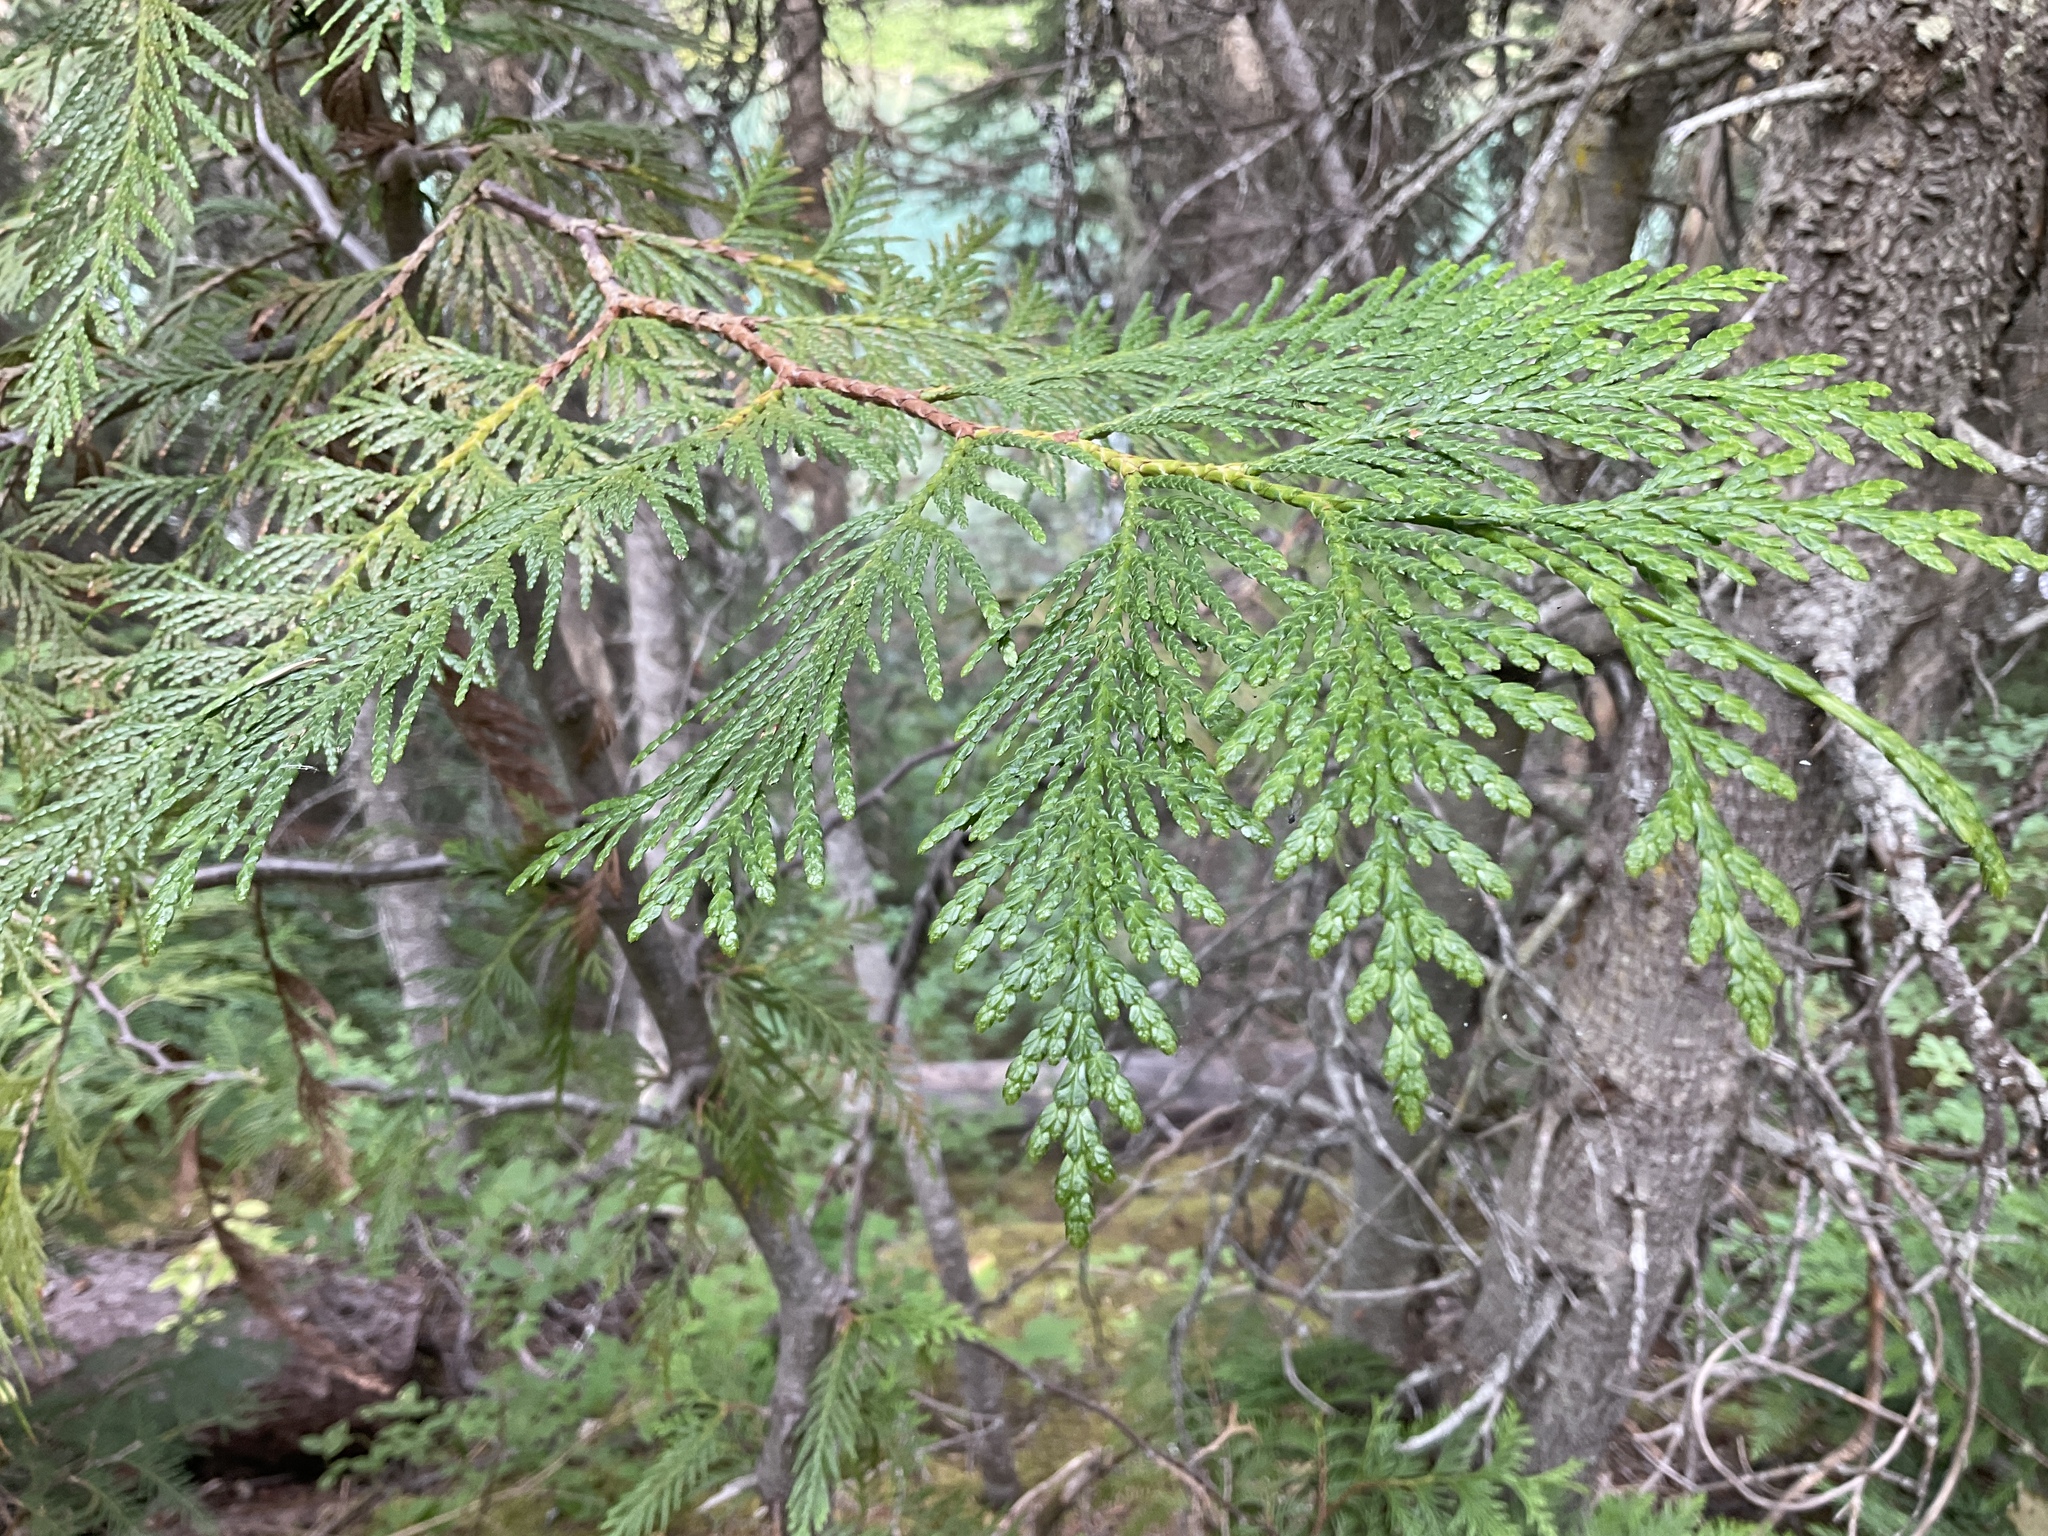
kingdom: Plantae
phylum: Tracheophyta
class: Pinopsida
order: Pinales
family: Cupressaceae
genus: Thuja
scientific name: Thuja plicata
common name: Western red-cedar
